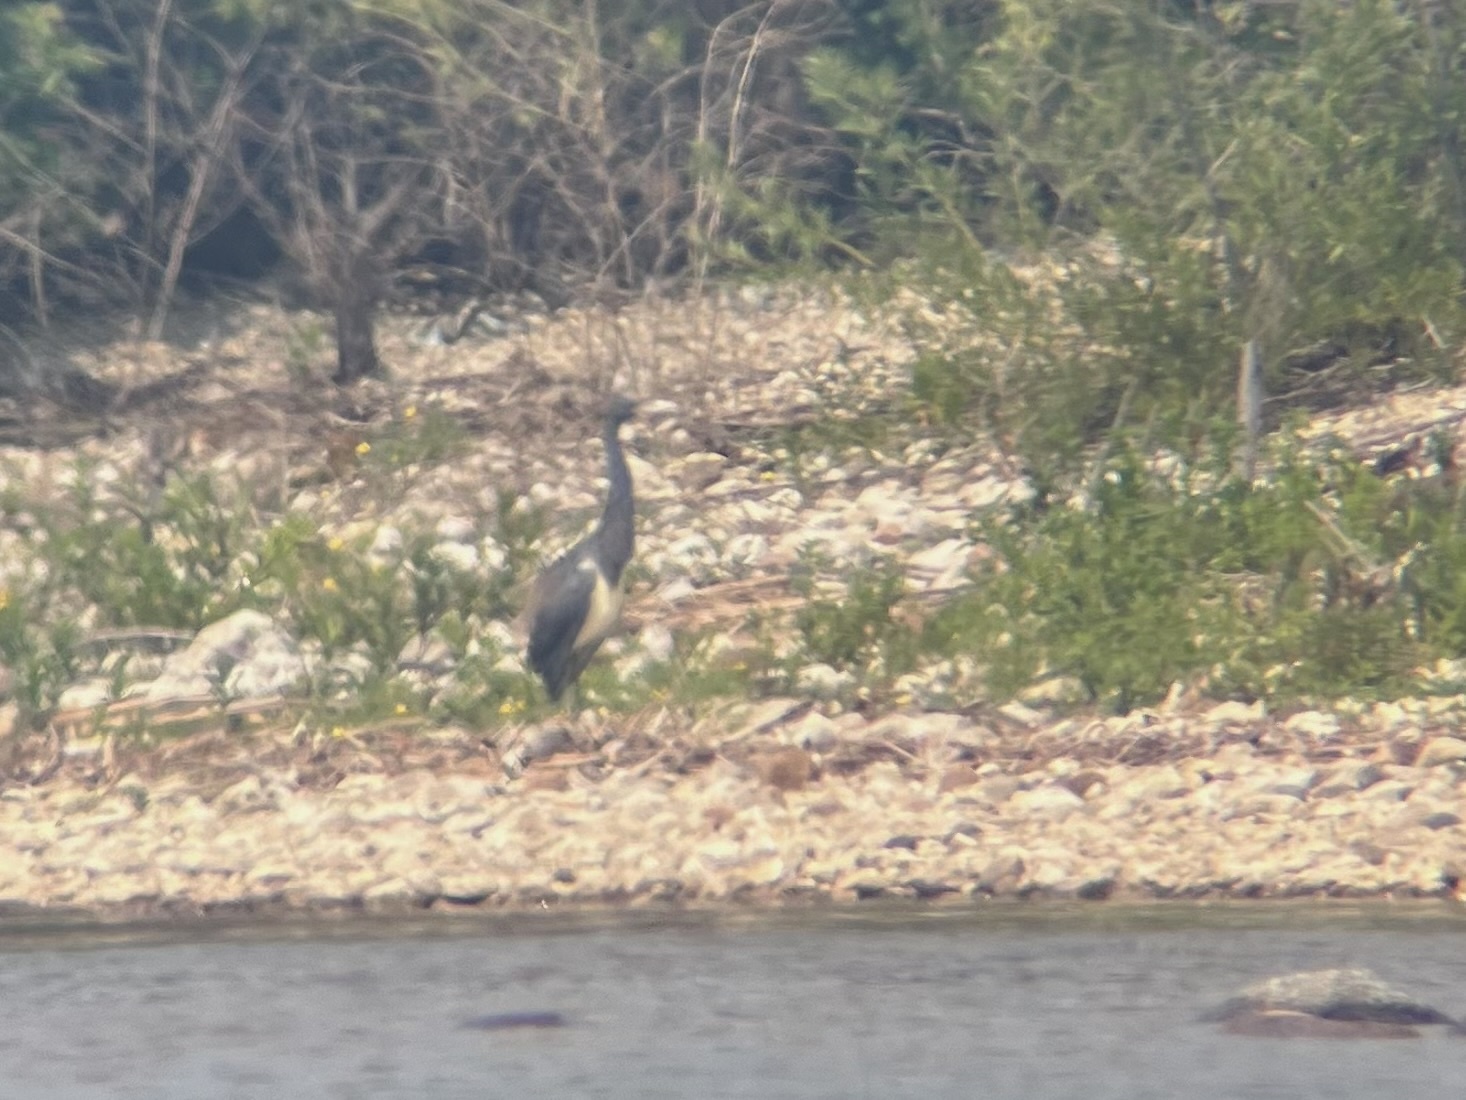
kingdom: Animalia
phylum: Chordata
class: Aves
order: Pelecaniformes
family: Ardeidae
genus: Egretta
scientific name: Egretta tricolor
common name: Tricolored heron
